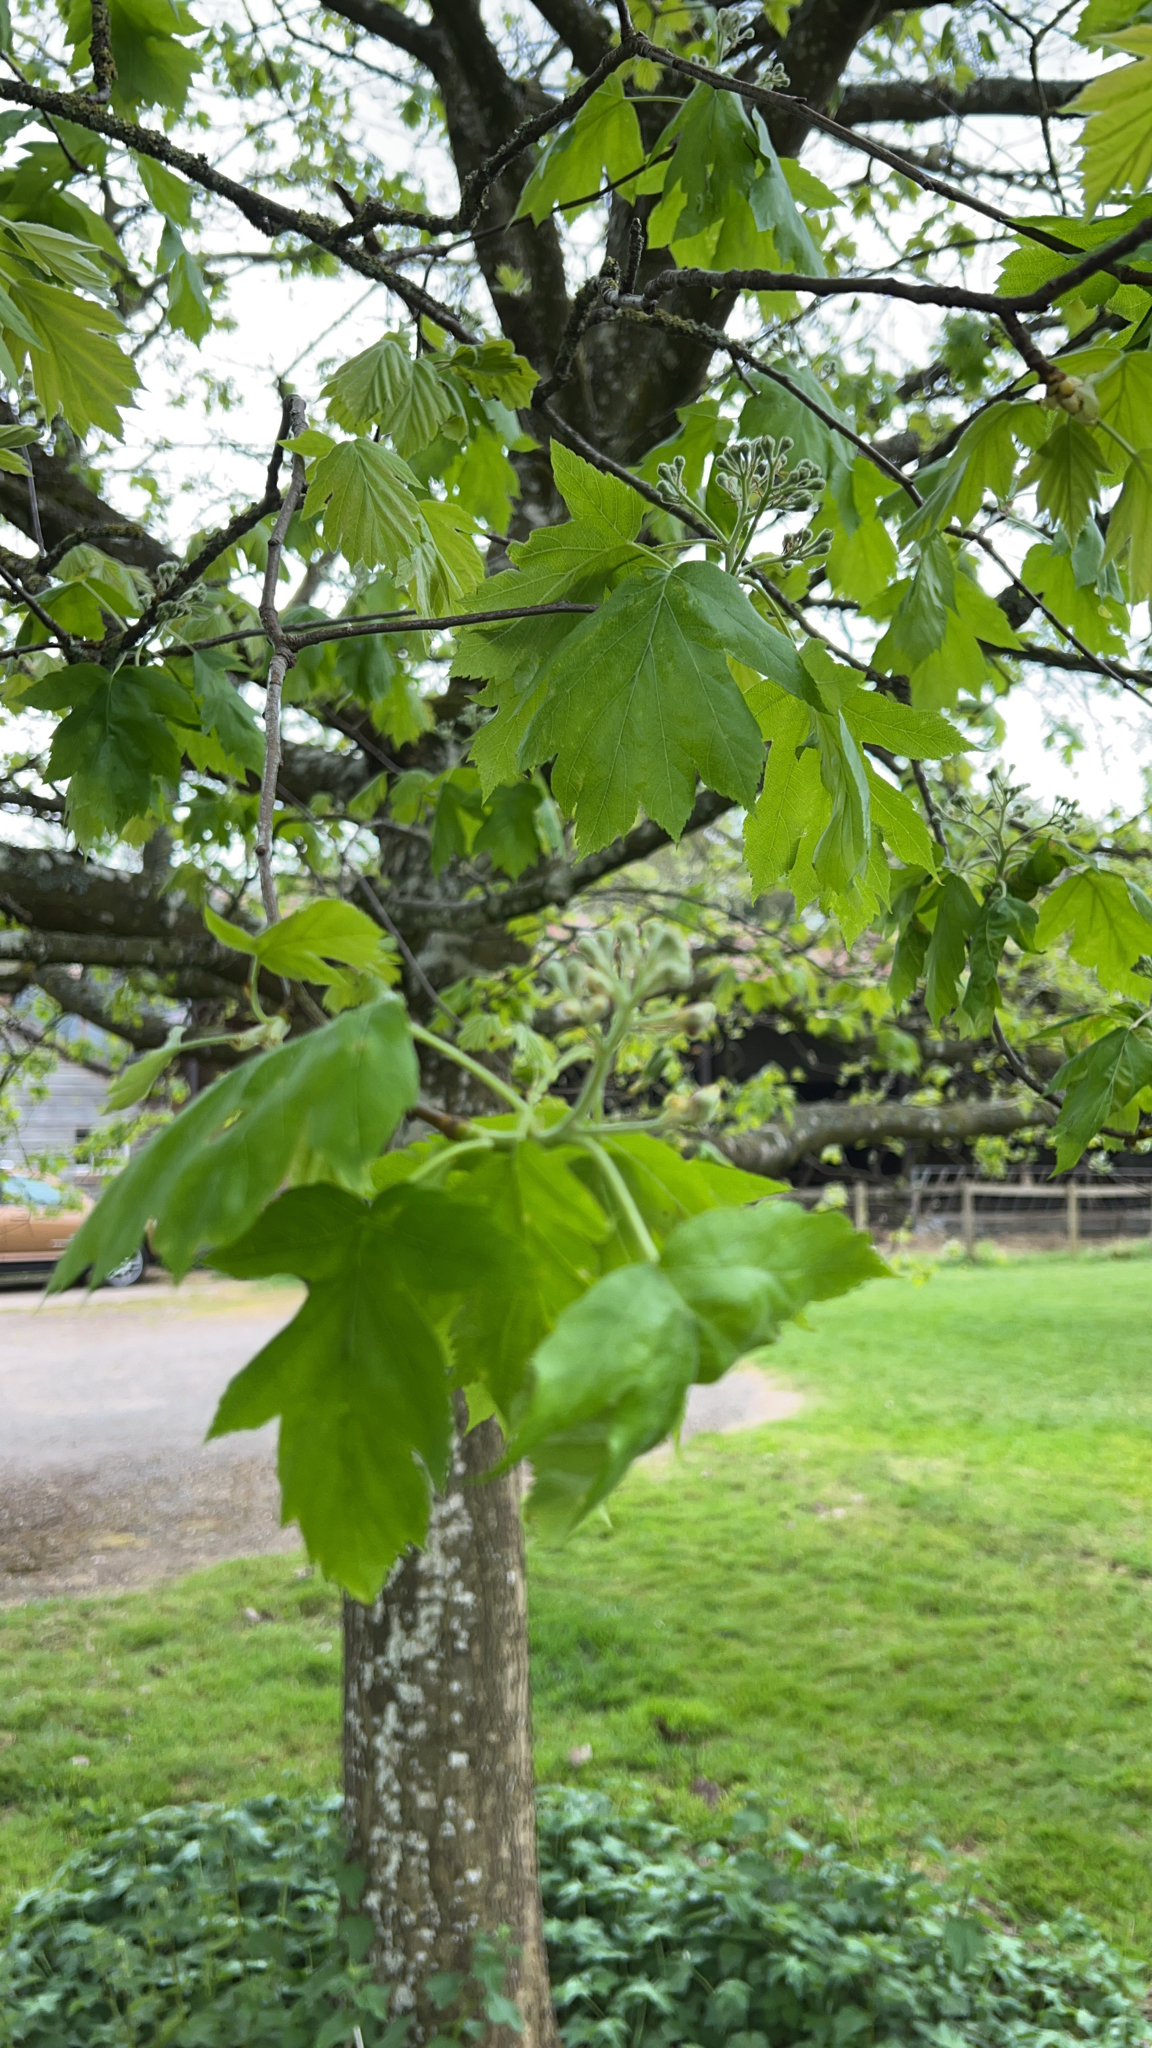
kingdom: Plantae
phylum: Tracheophyta
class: Magnoliopsida
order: Rosales
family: Rosaceae
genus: Torminalis
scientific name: Torminalis glaberrima
